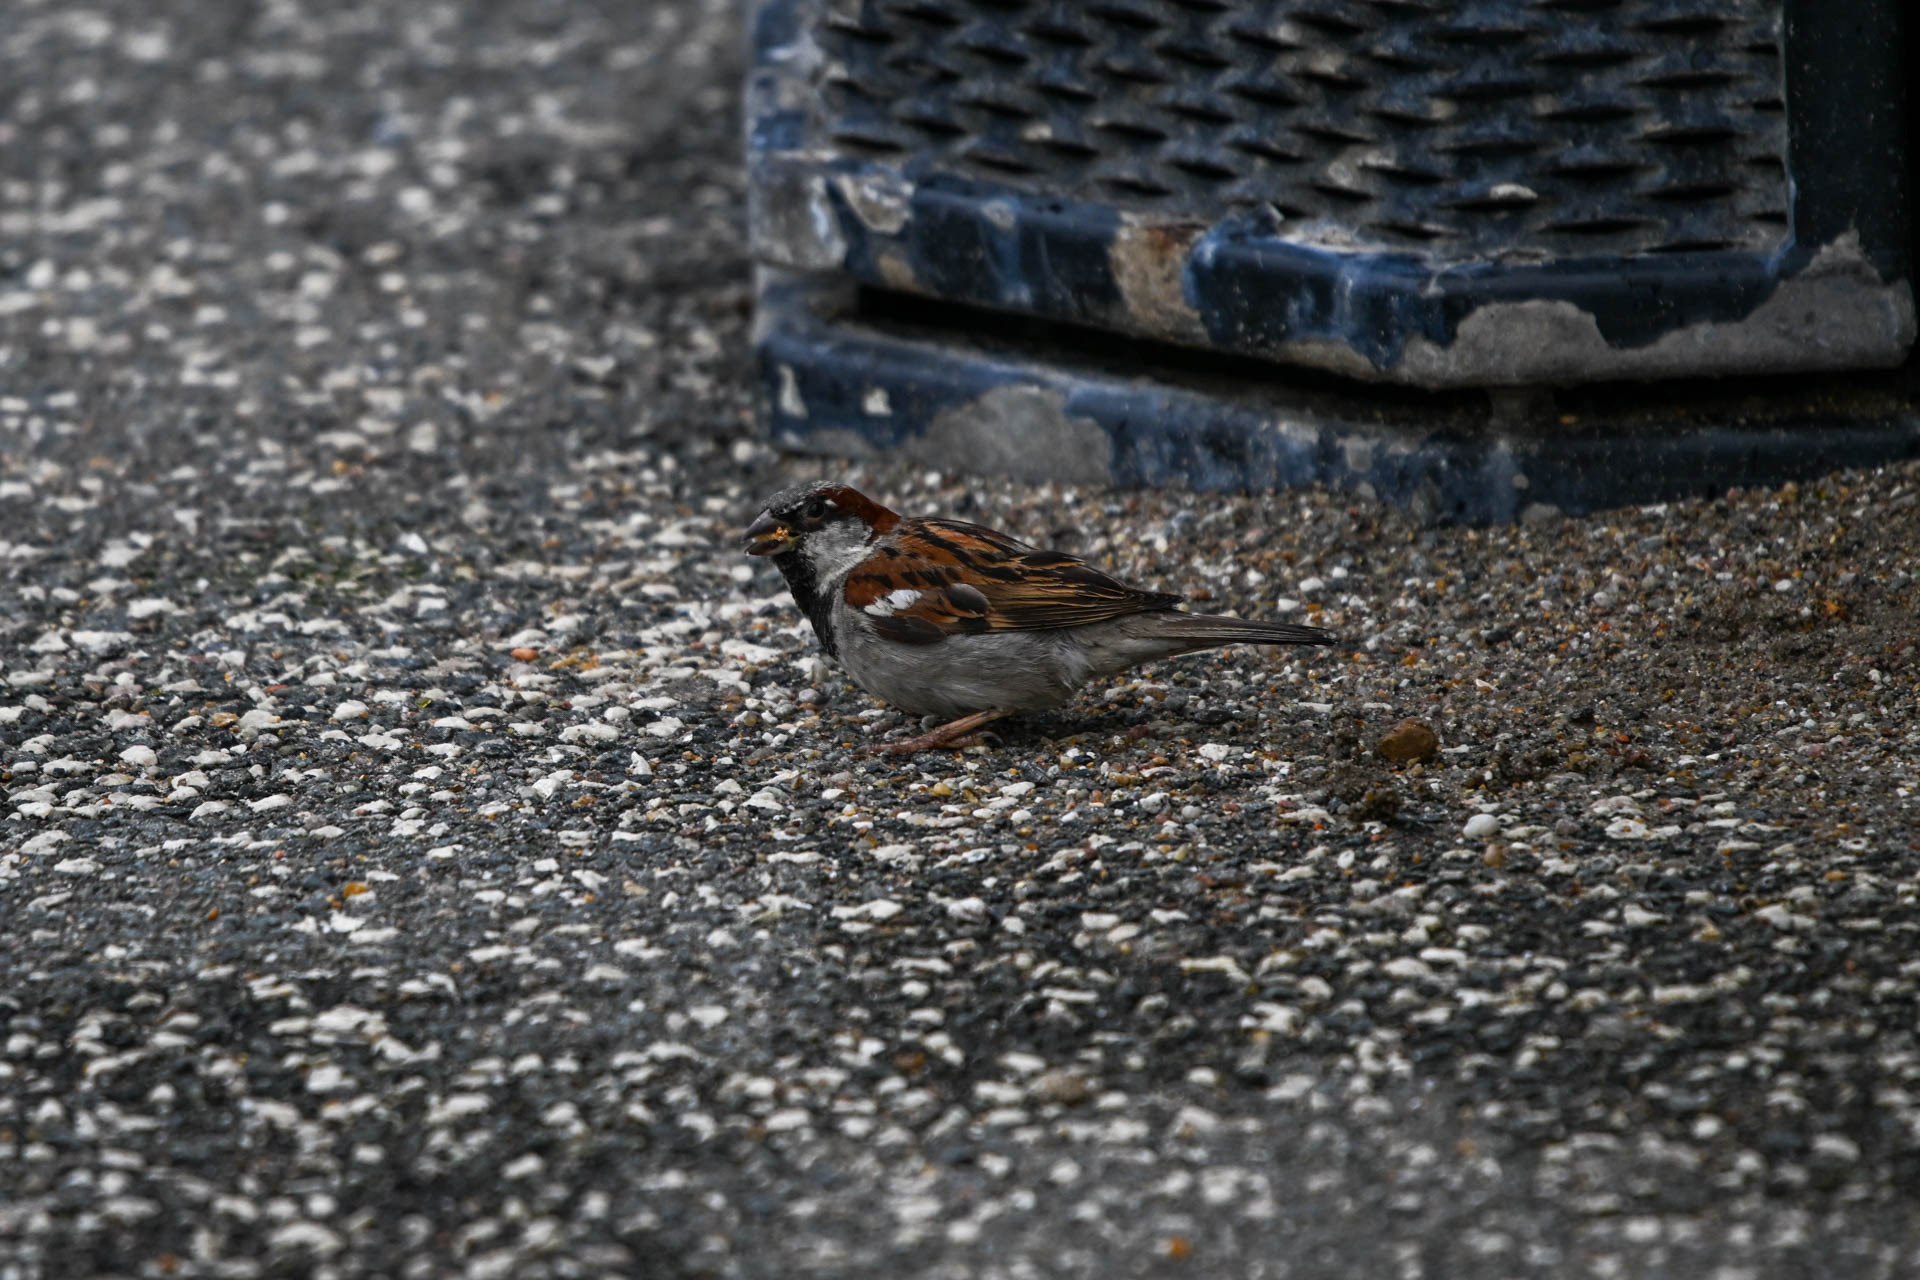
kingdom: Animalia
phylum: Chordata
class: Aves
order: Passeriformes
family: Passeridae
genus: Passer
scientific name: Passer domesticus
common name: House sparrow
